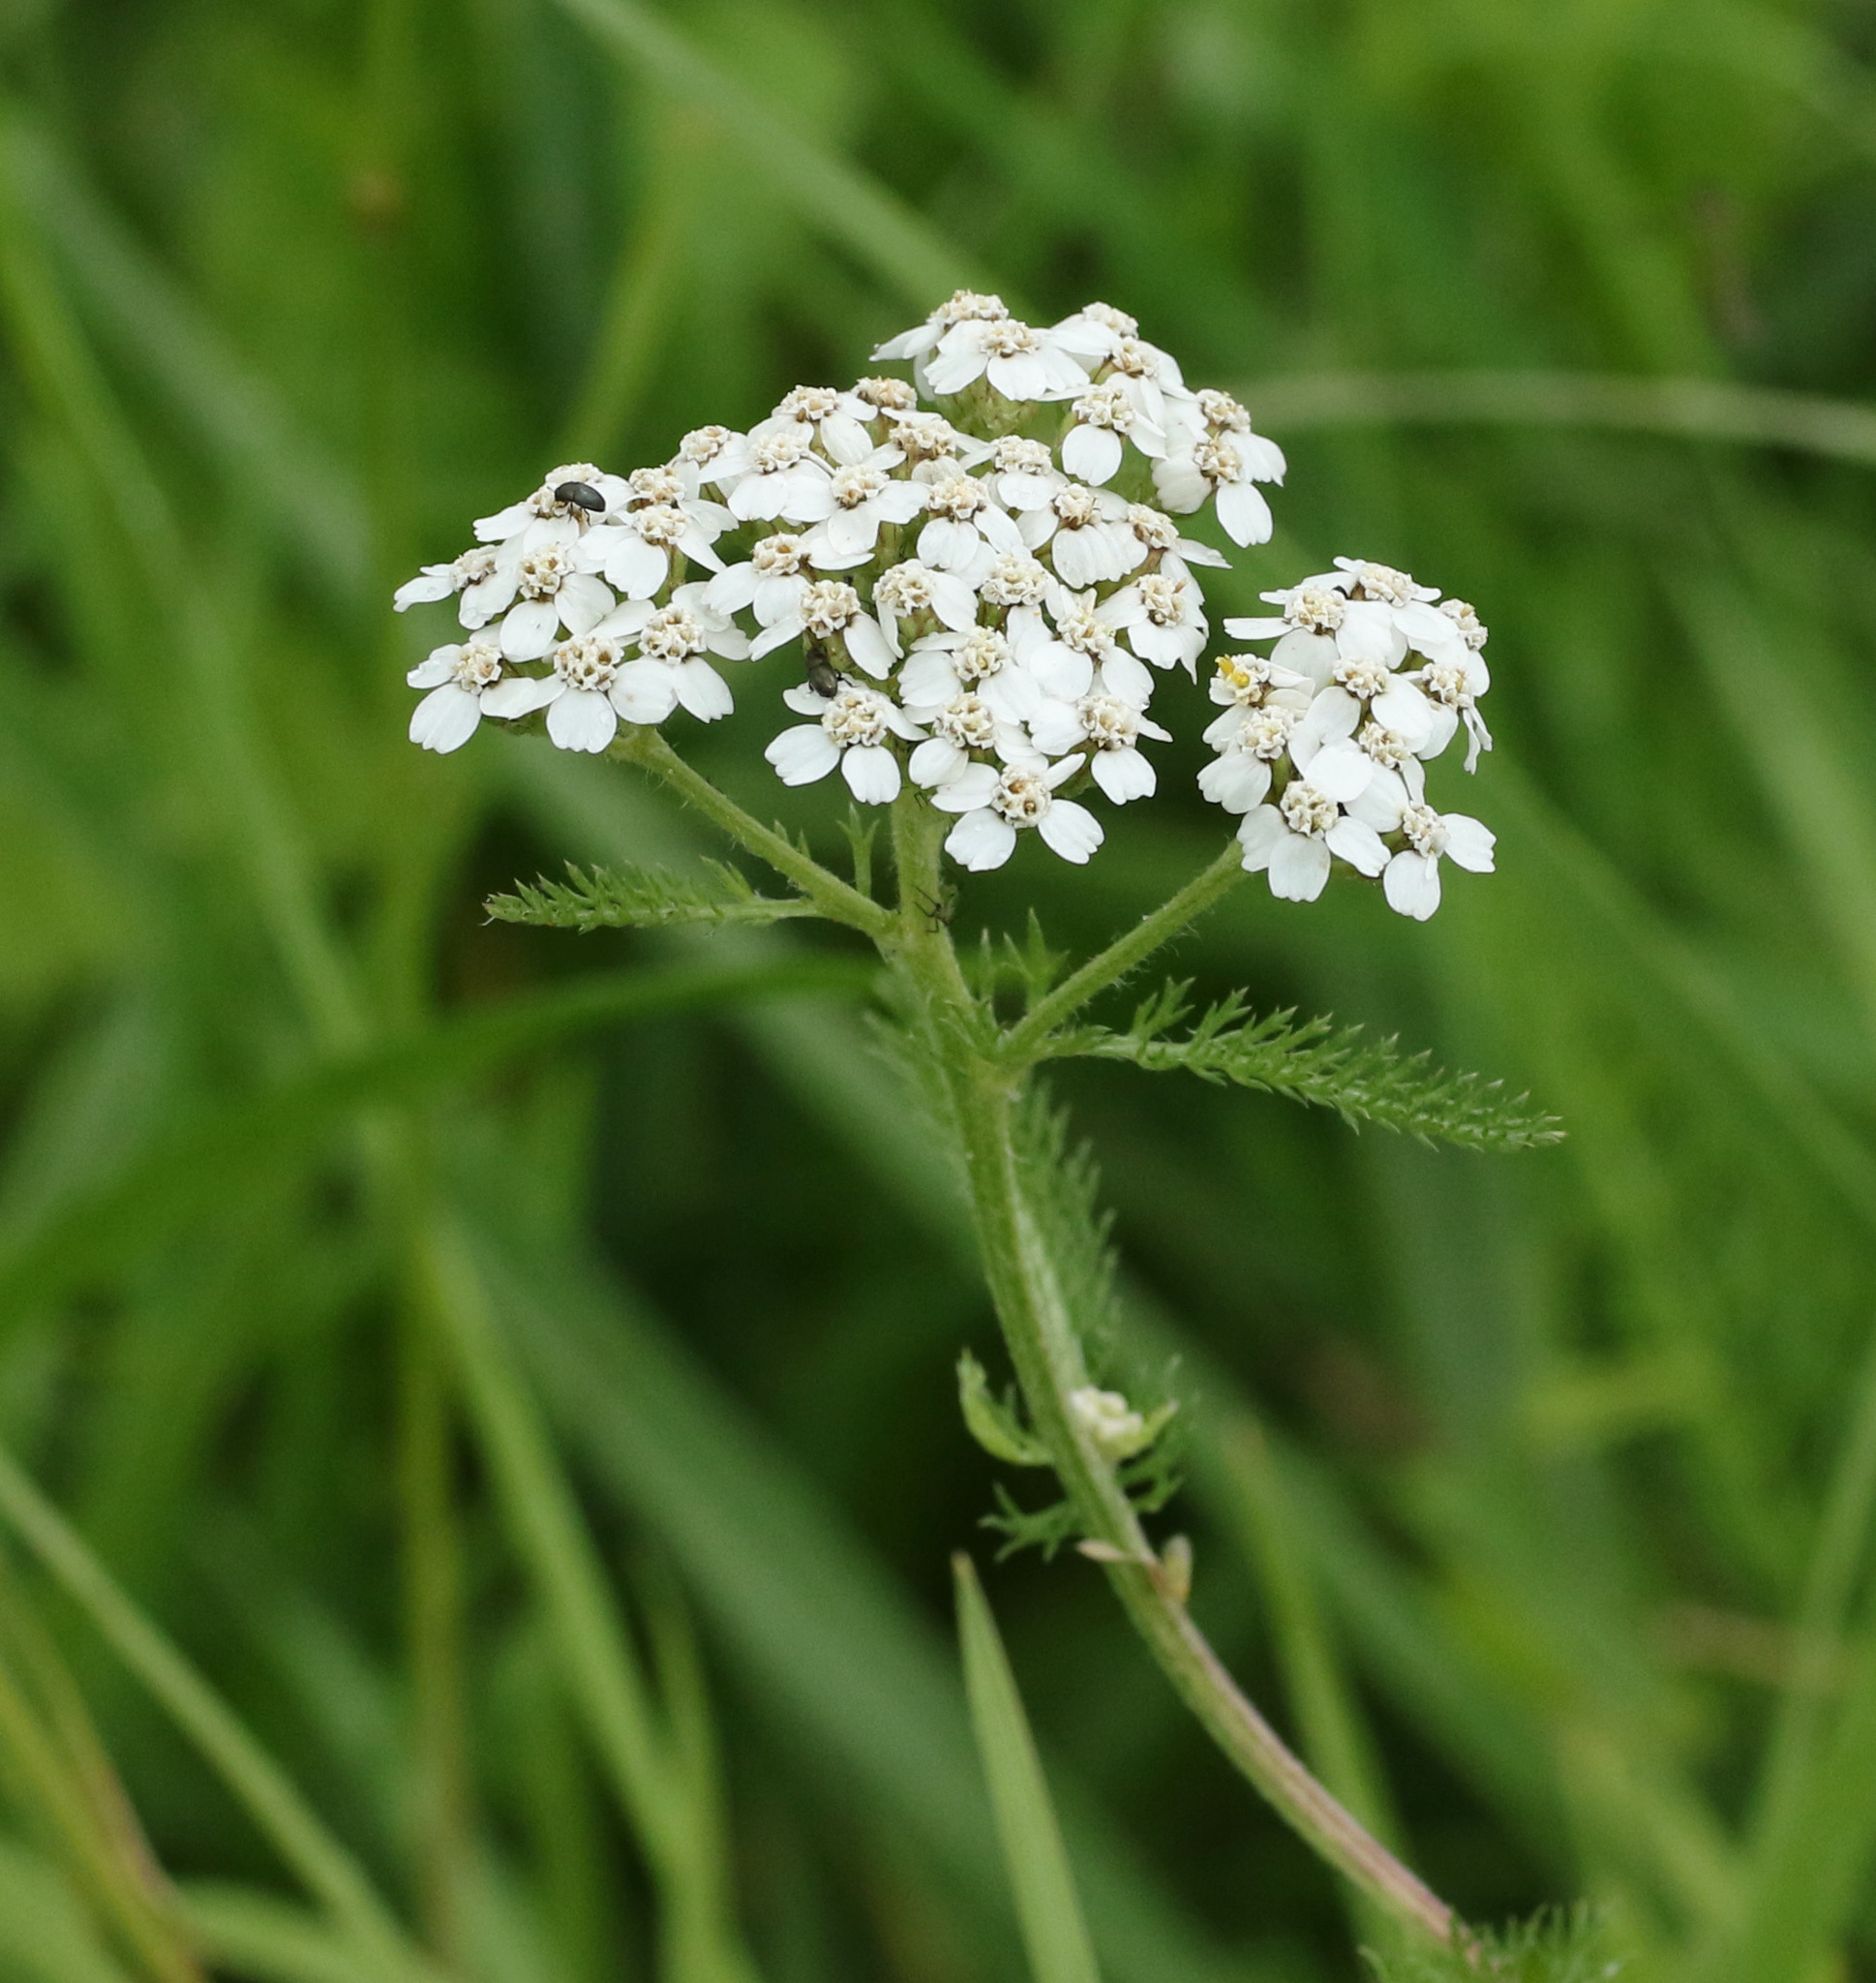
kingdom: Plantae
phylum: Tracheophyta
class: Magnoliopsida
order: Asterales
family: Asteraceae
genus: Achillea
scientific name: Achillea millefolium
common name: Yarrow
